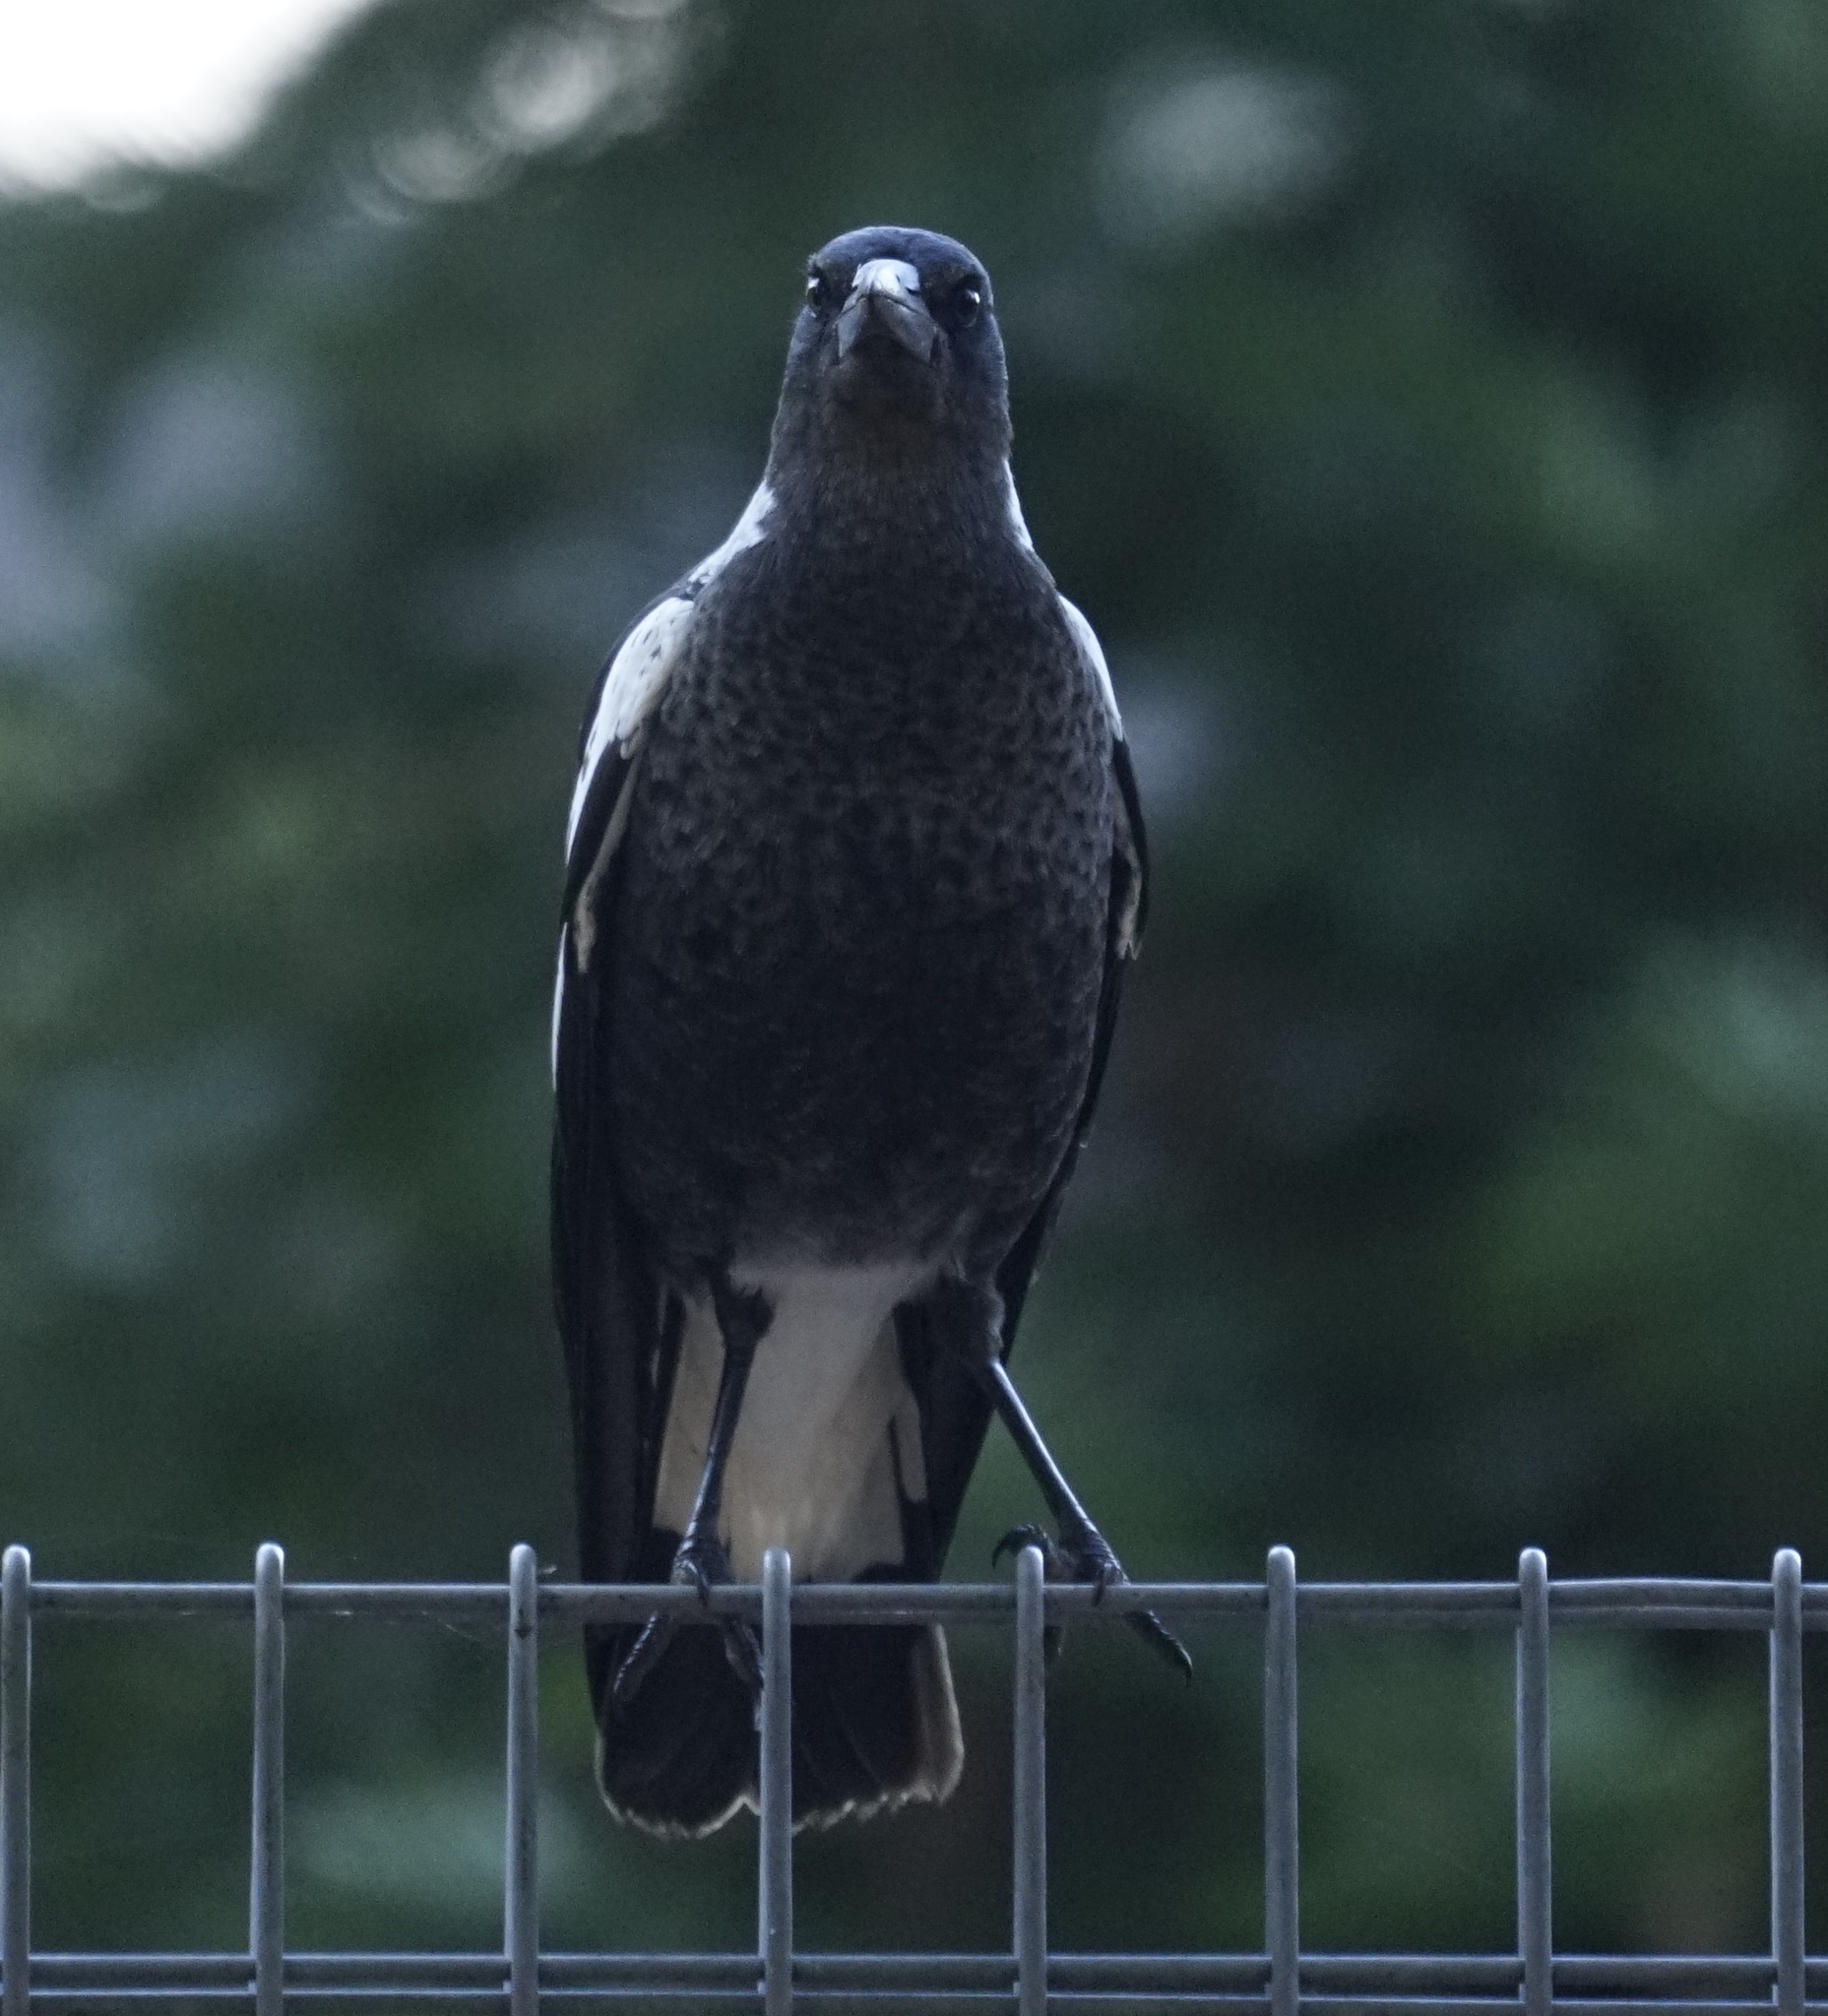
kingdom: Animalia
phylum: Chordata
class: Aves
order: Passeriformes
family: Cracticidae
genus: Gymnorhina
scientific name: Gymnorhina tibicen
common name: Australian magpie
